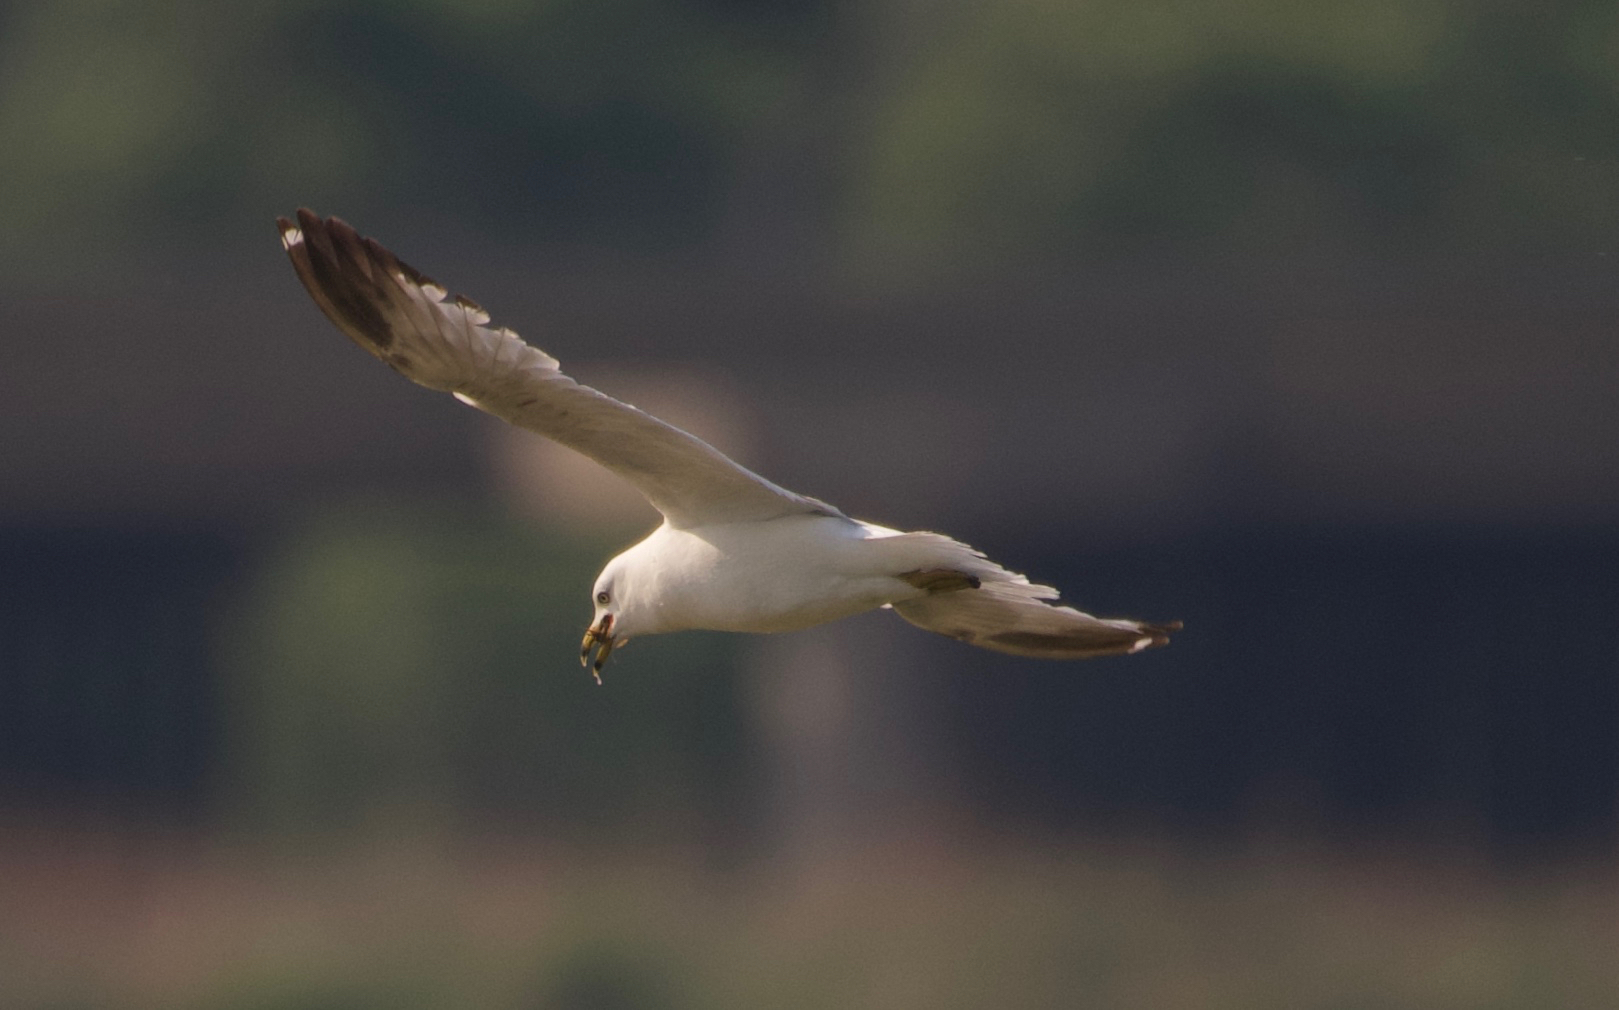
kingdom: Animalia
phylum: Chordata
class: Aves
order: Charadriiformes
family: Laridae
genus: Larus
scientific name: Larus delawarensis
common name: Ring-billed gull
